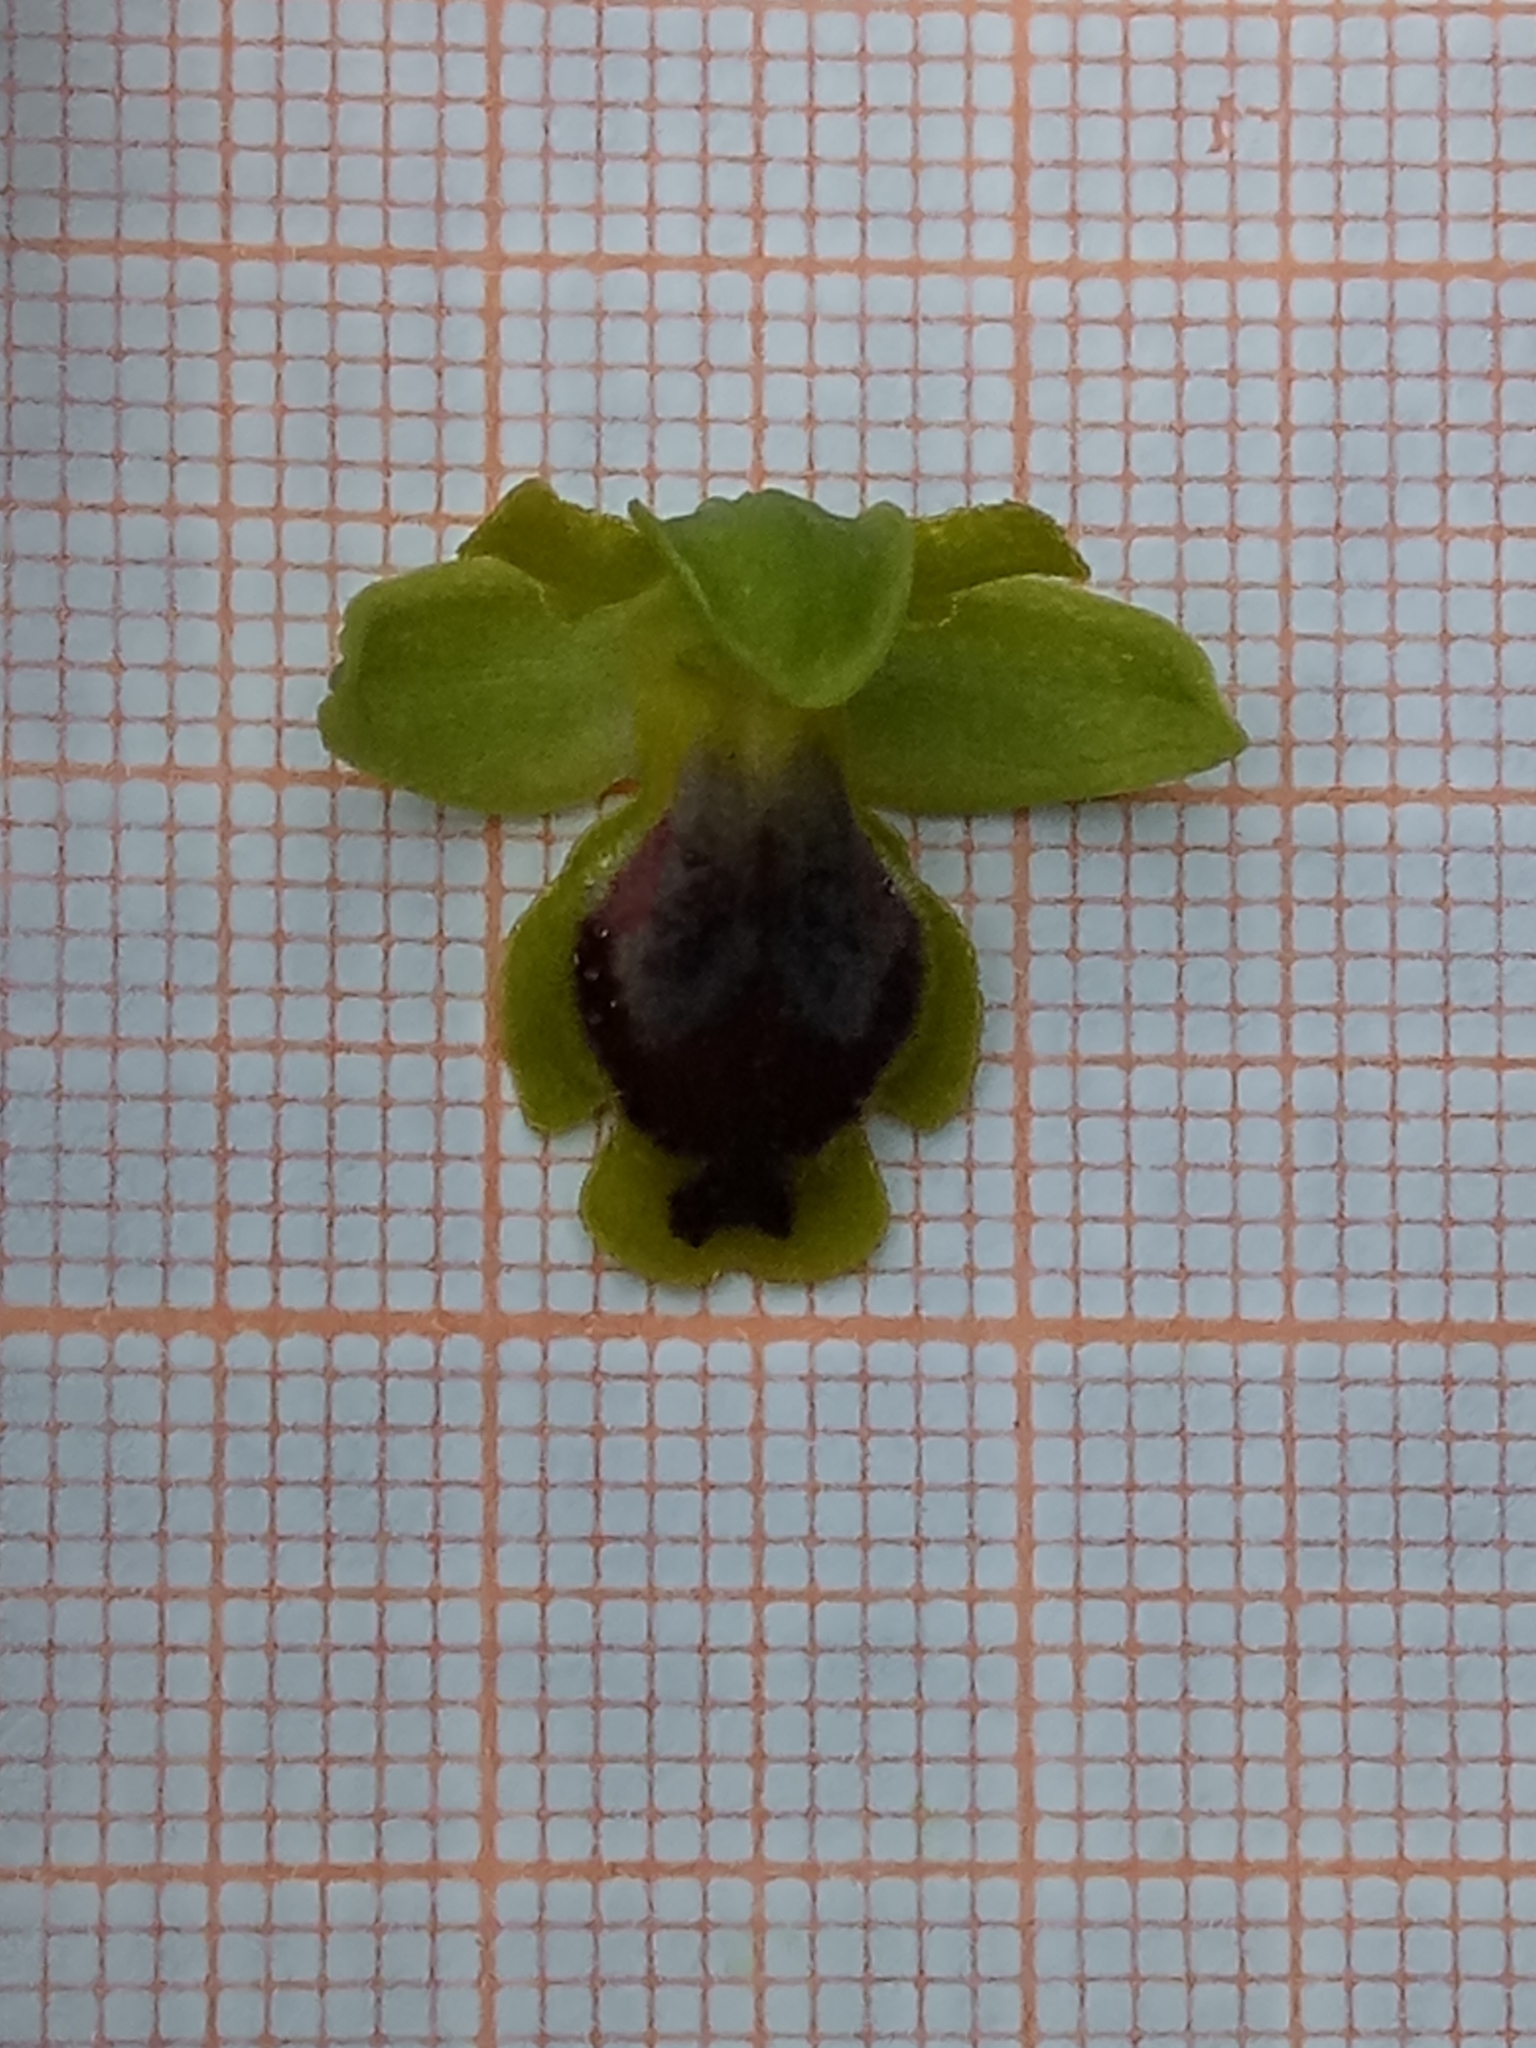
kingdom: Plantae
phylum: Tracheophyta
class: Liliopsida
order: Asparagales
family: Orchidaceae
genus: Ophrys
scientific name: Ophrys lutea
